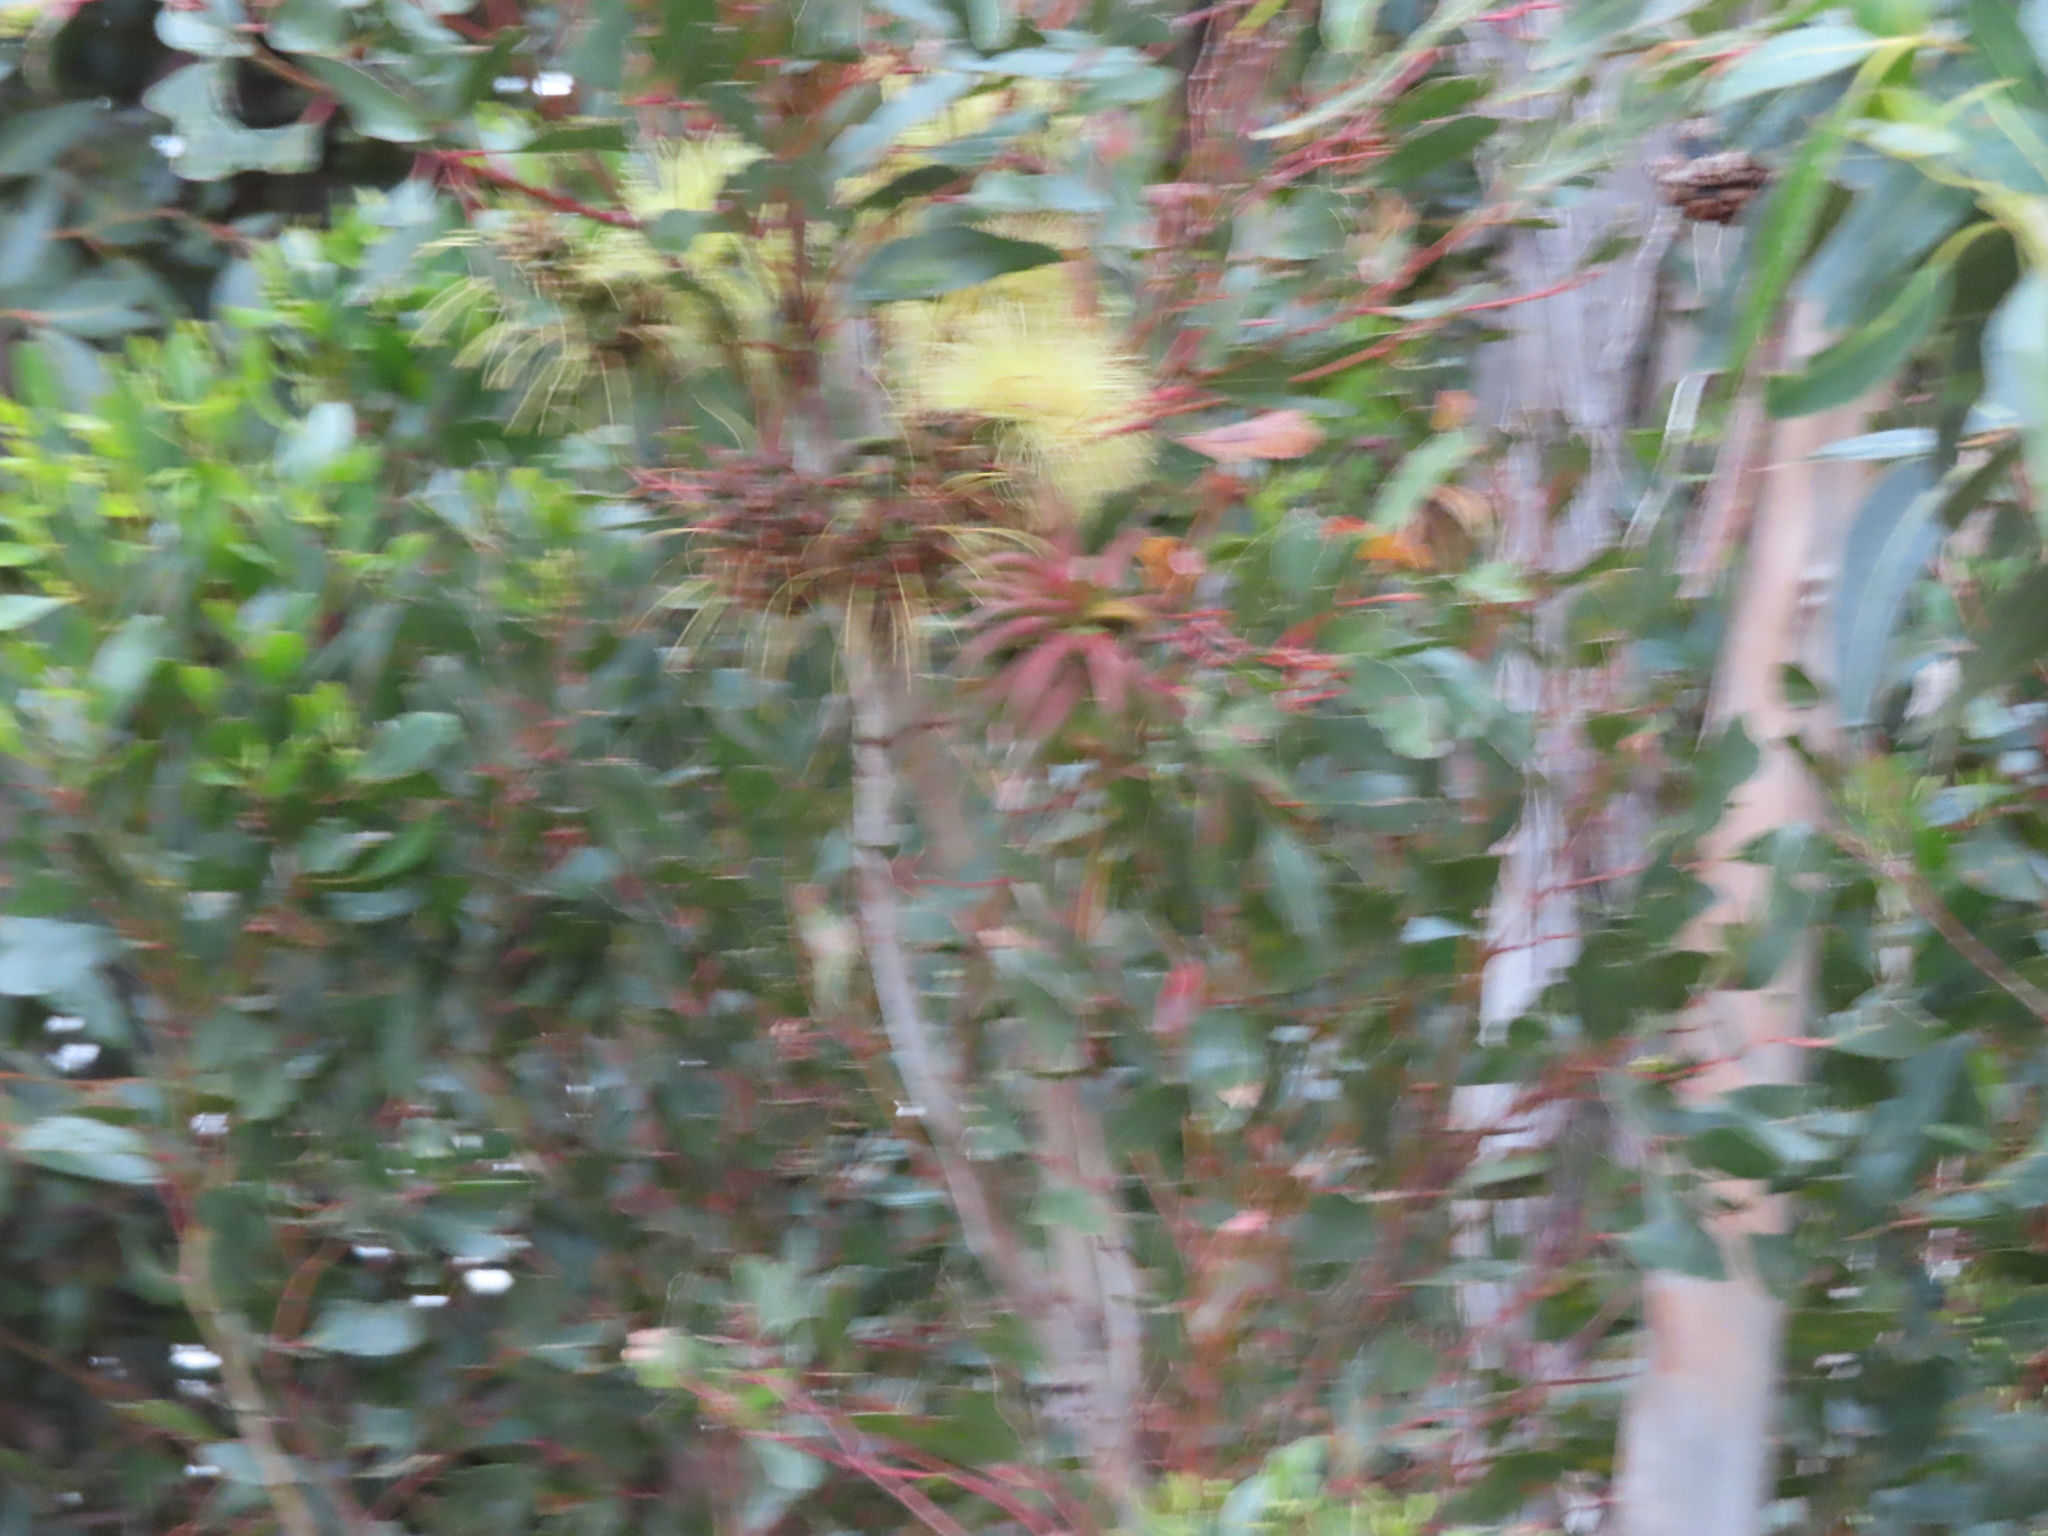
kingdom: Plantae
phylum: Tracheophyta
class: Magnoliopsida
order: Myrtales
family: Myrtaceae
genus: Eucalyptus
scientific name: Eucalyptus conferruminata
